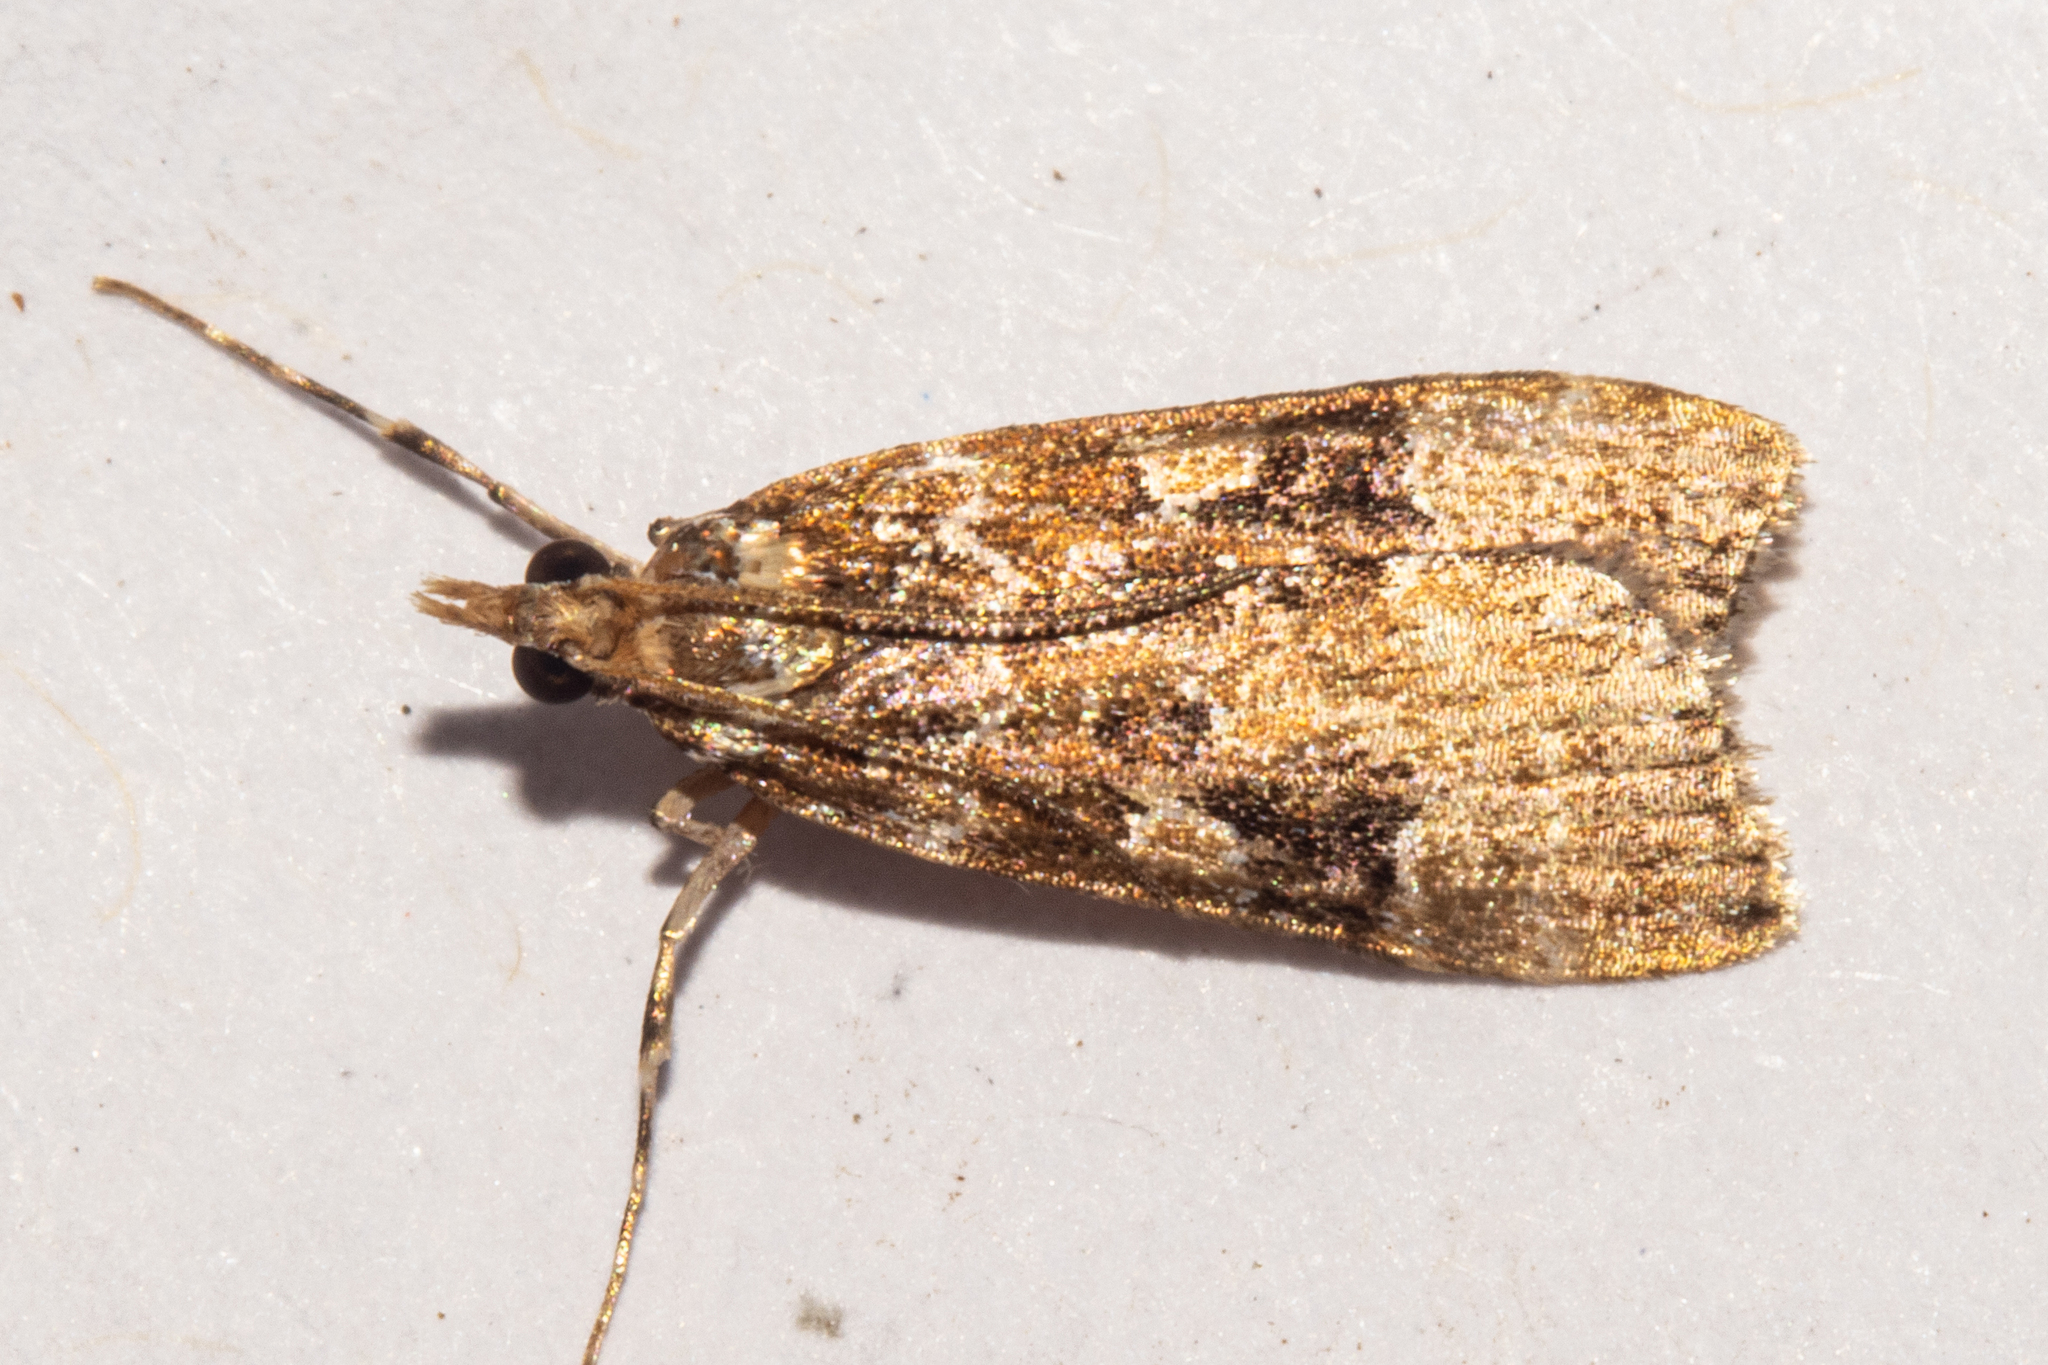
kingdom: Animalia
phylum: Arthropoda
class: Insecta
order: Lepidoptera
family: Crambidae
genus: Scoparia
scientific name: Scoparia ustimacula
